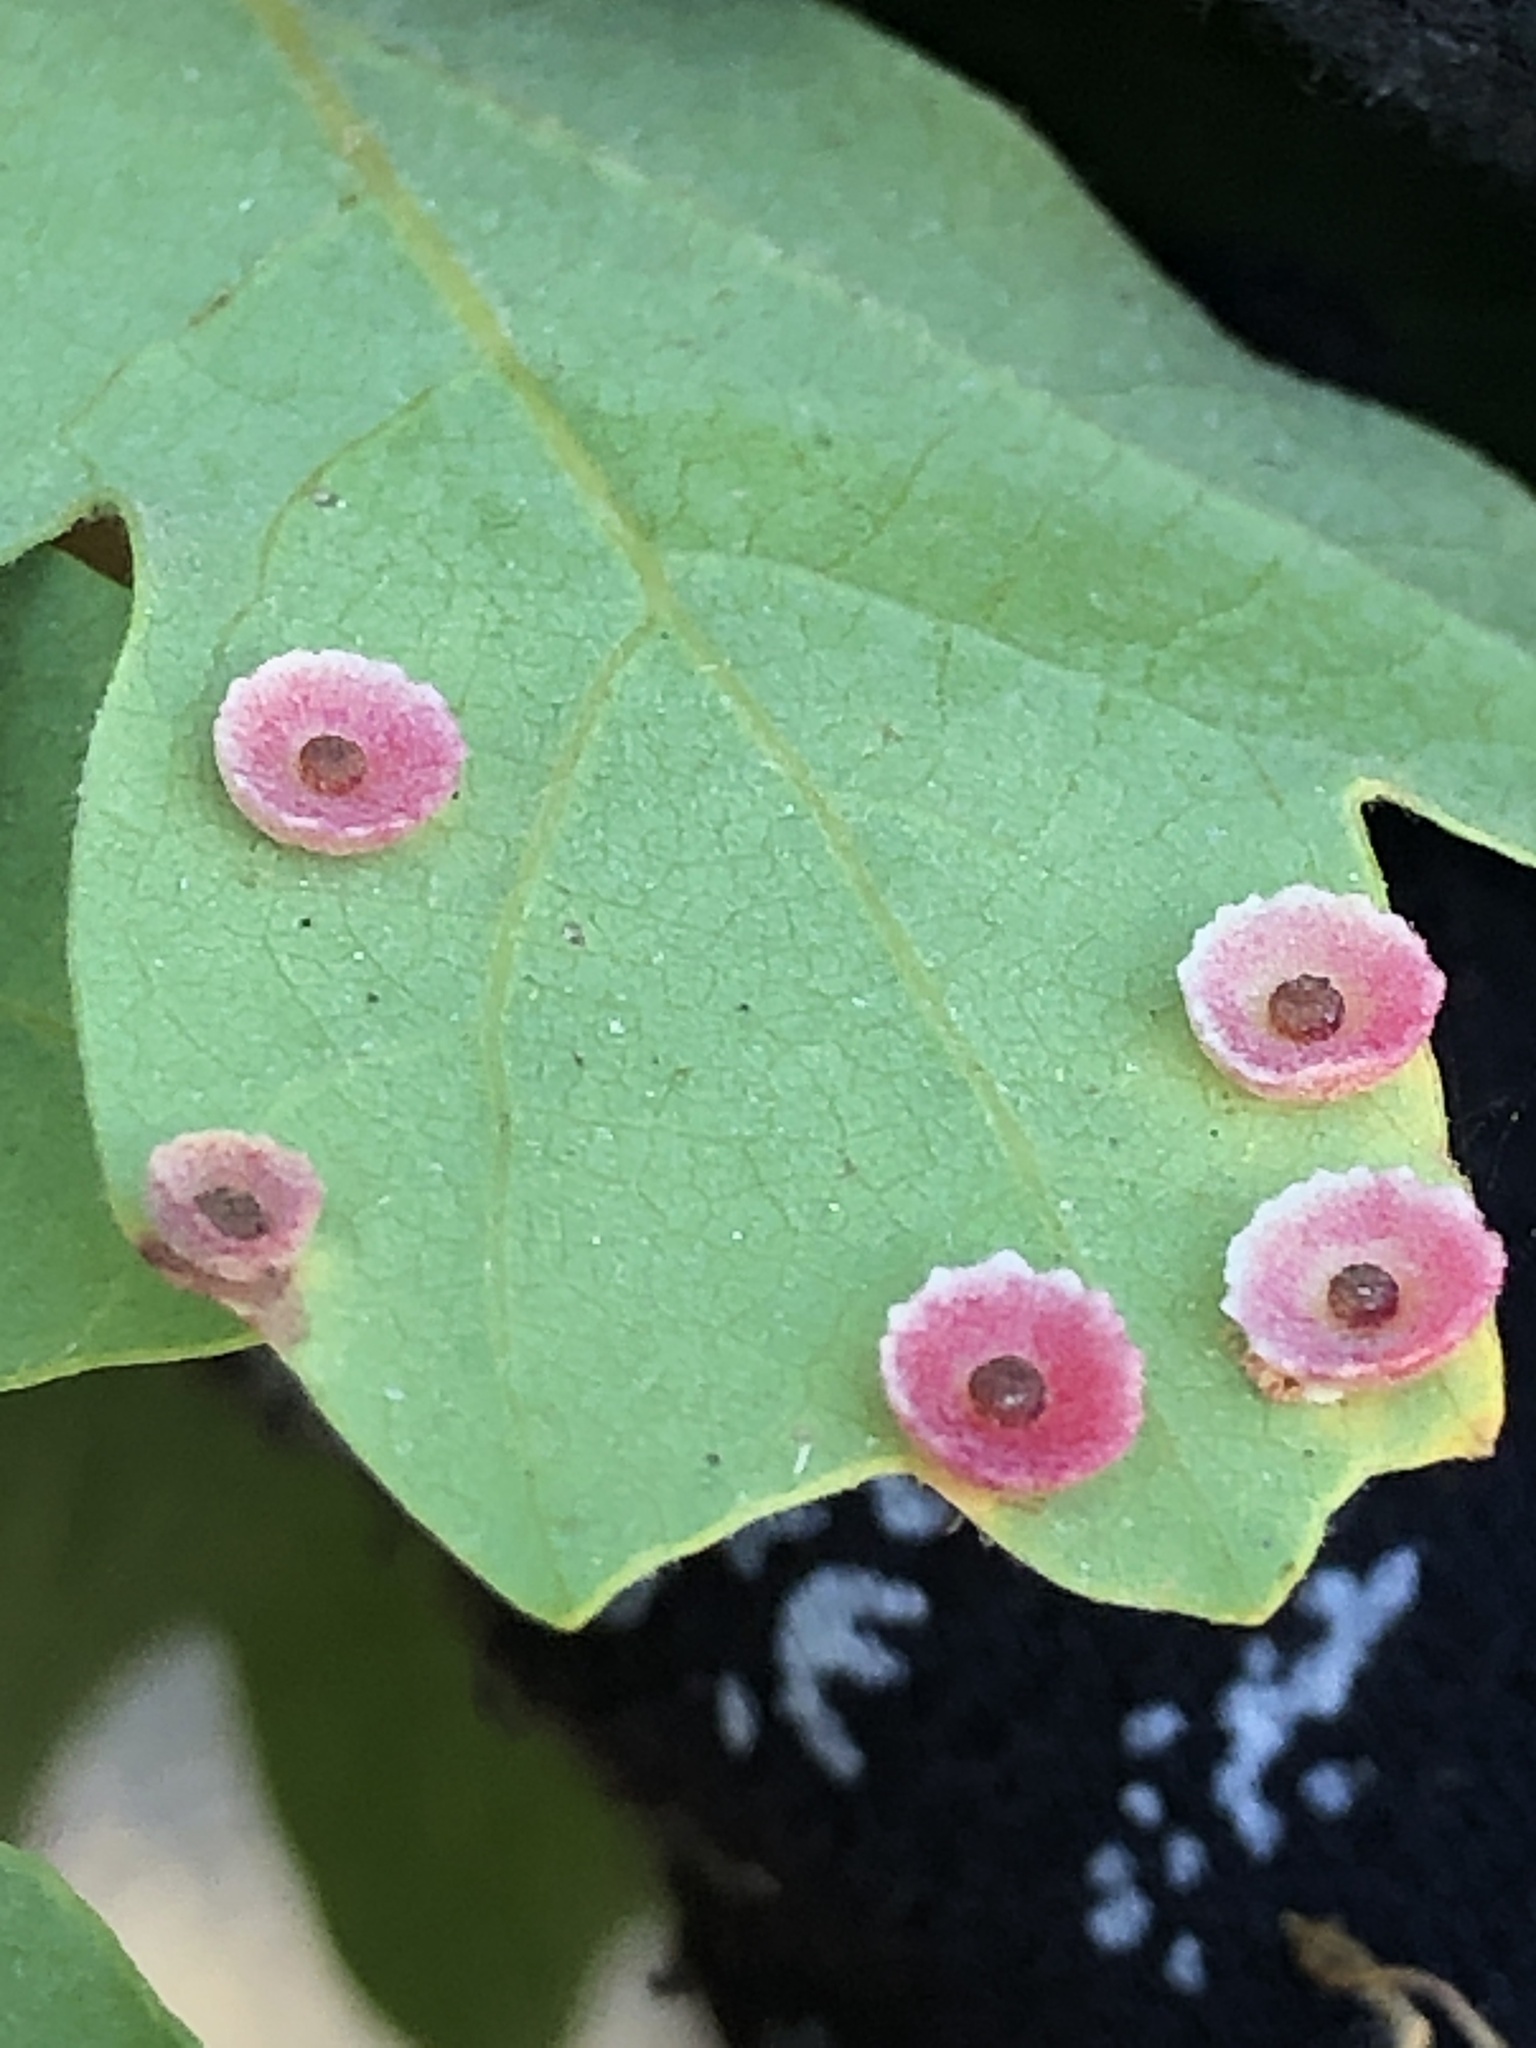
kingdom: Animalia
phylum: Arthropoda
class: Insecta
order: Hymenoptera
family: Cynipidae
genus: Andricus
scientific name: Andricus
